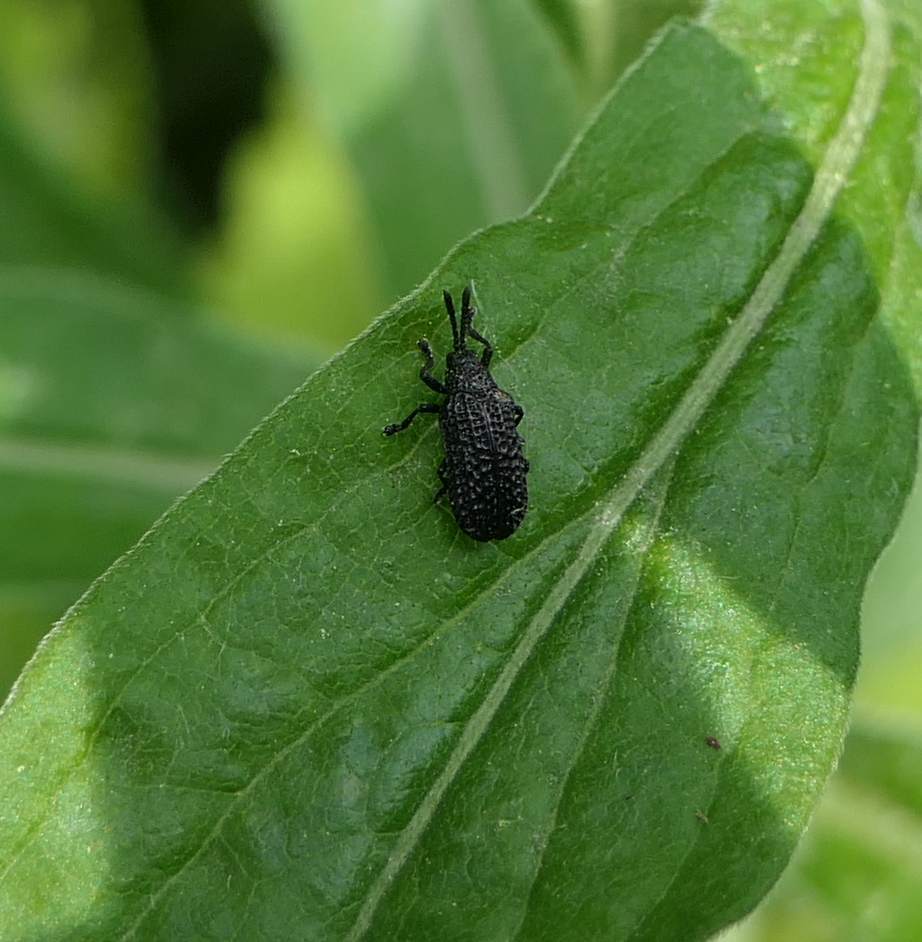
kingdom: Animalia
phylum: Arthropoda
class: Insecta
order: Coleoptera
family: Chrysomelidae
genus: Microrhopala
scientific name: Microrhopala excavata
